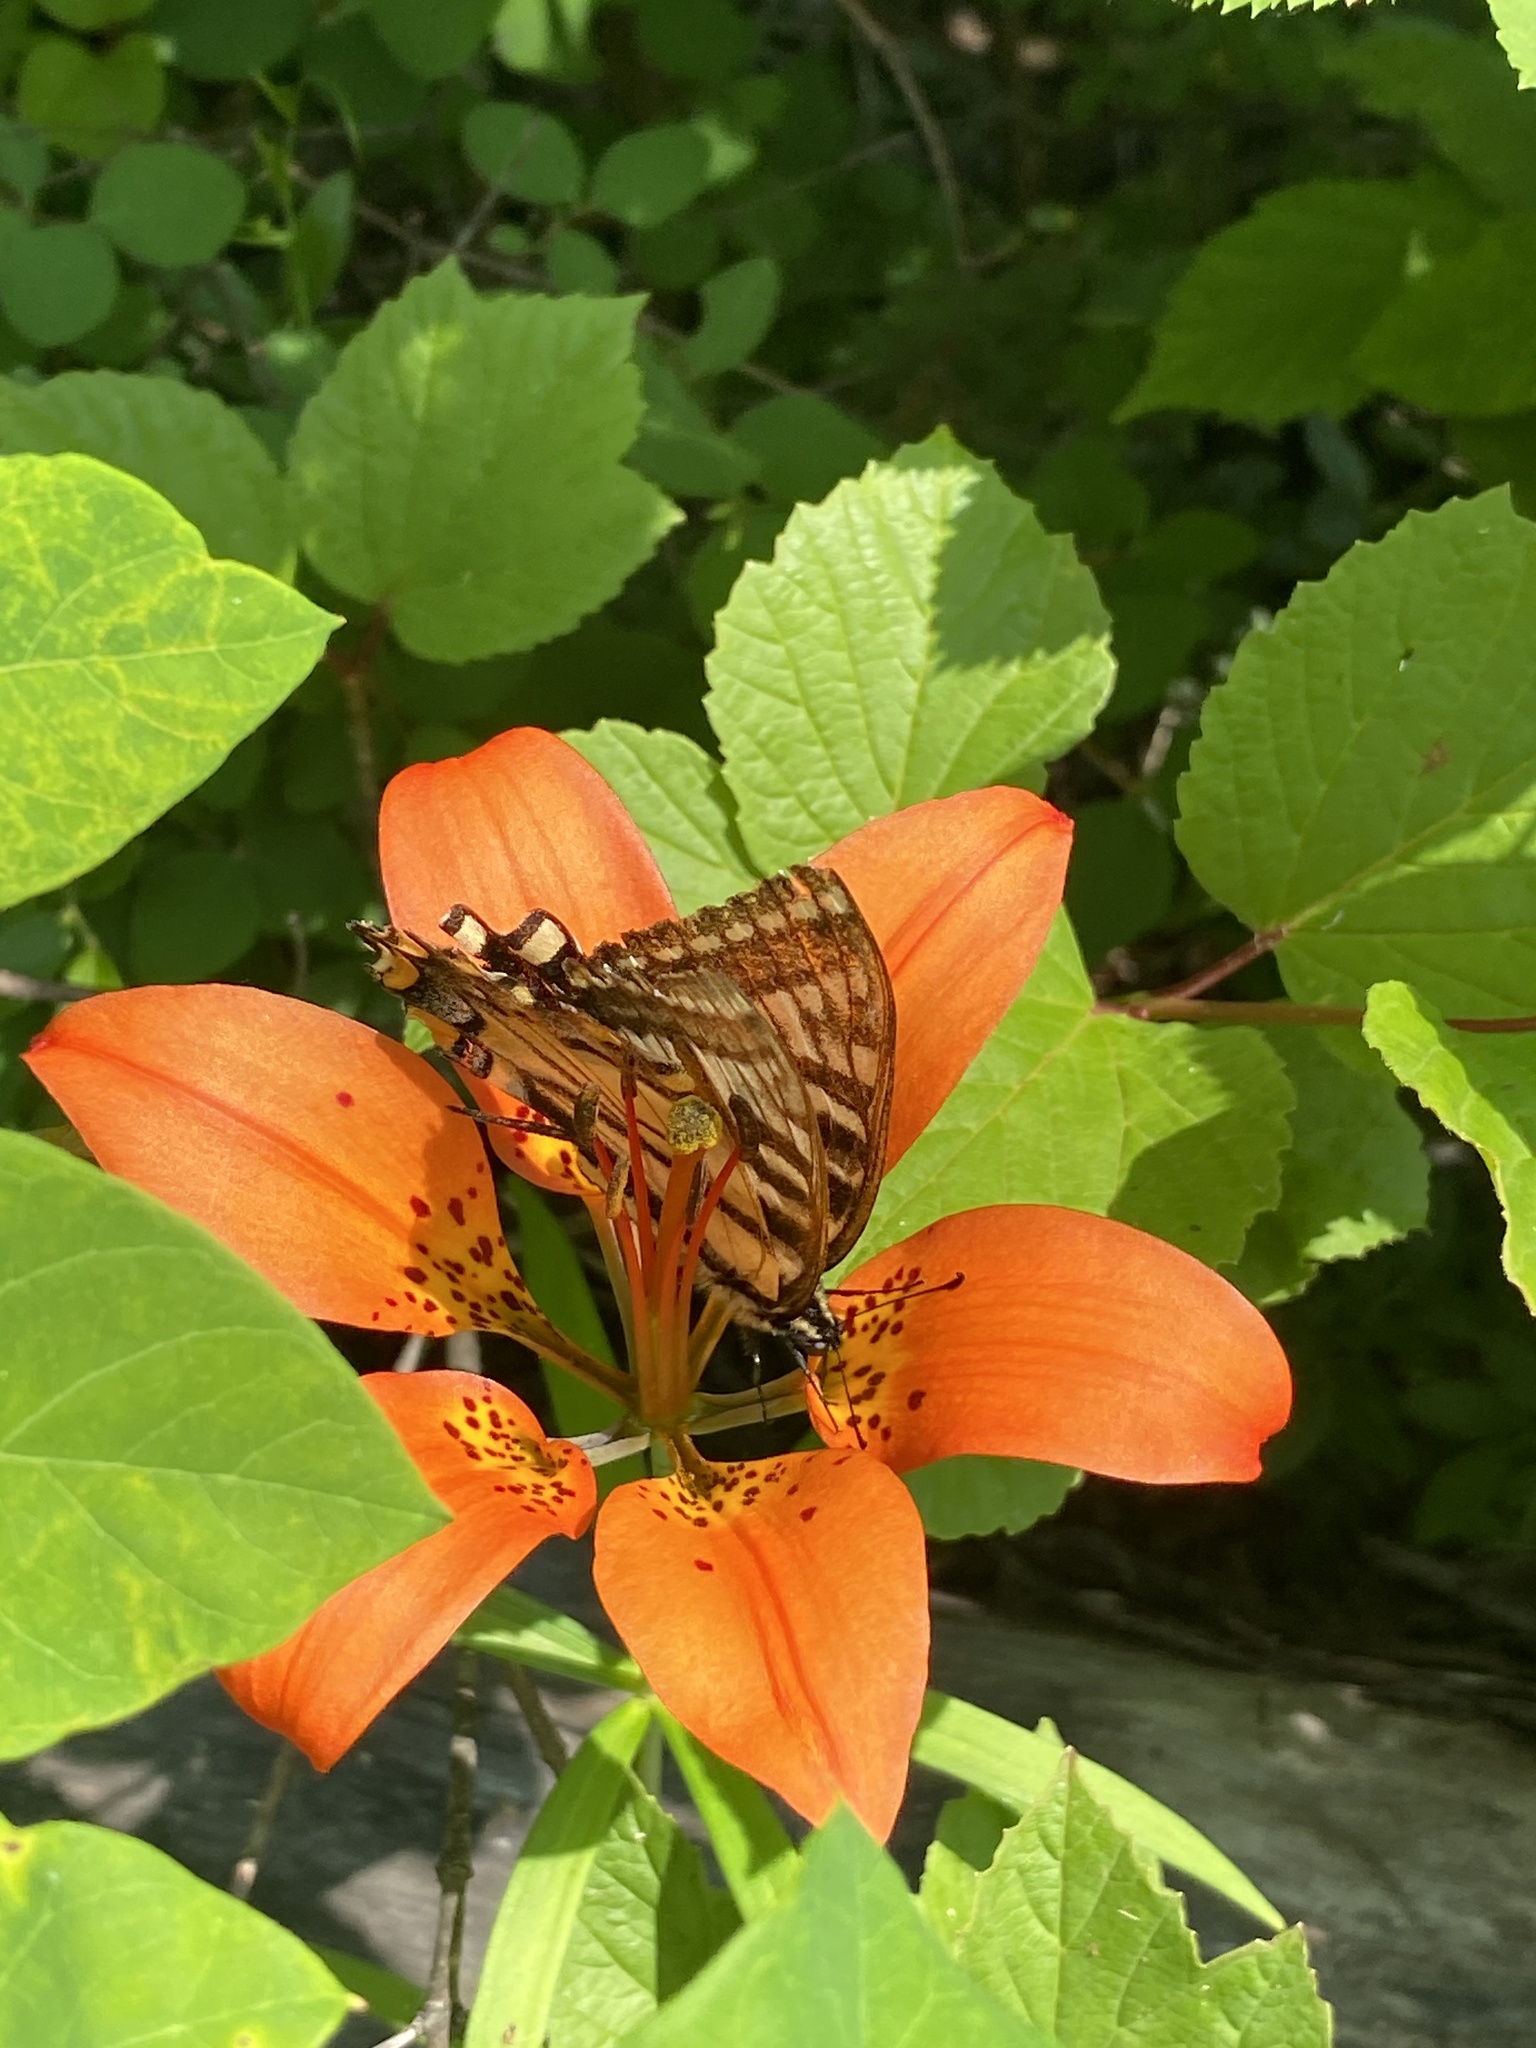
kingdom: Plantae
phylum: Tracheophyta
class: Liliopsida
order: Liliales
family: Liliaceae
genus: Lilium
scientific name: Lilium philadelphicum
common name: Red lily
